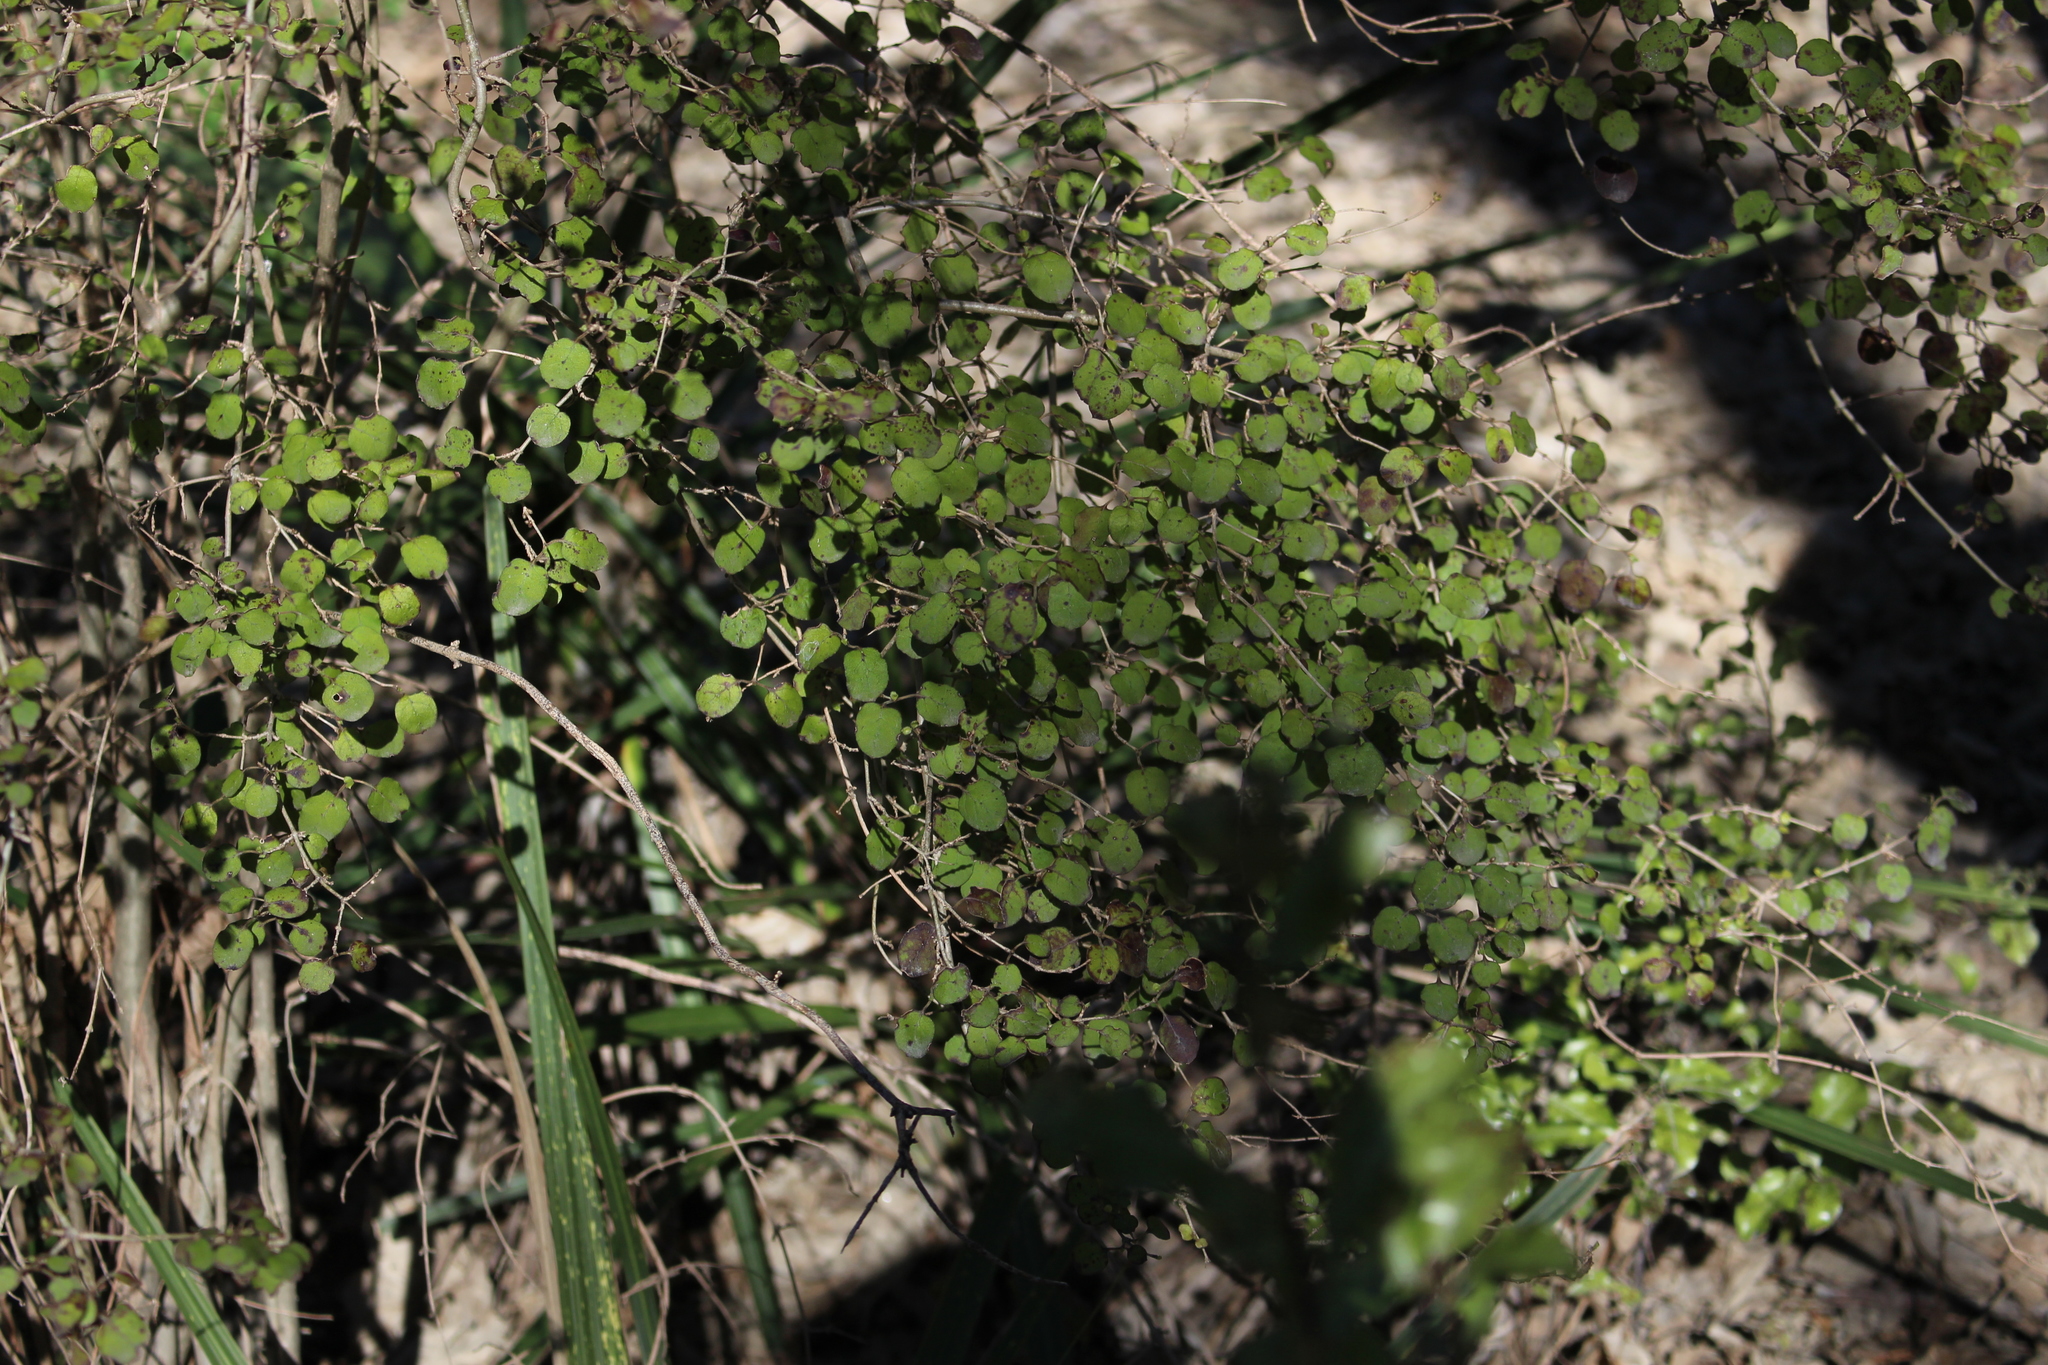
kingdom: Plantae
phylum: Tracheophyta
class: Magnoliopsida
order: Gentianales
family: Rubiaceae
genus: Coprosma
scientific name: Coprosma rotundifolia
